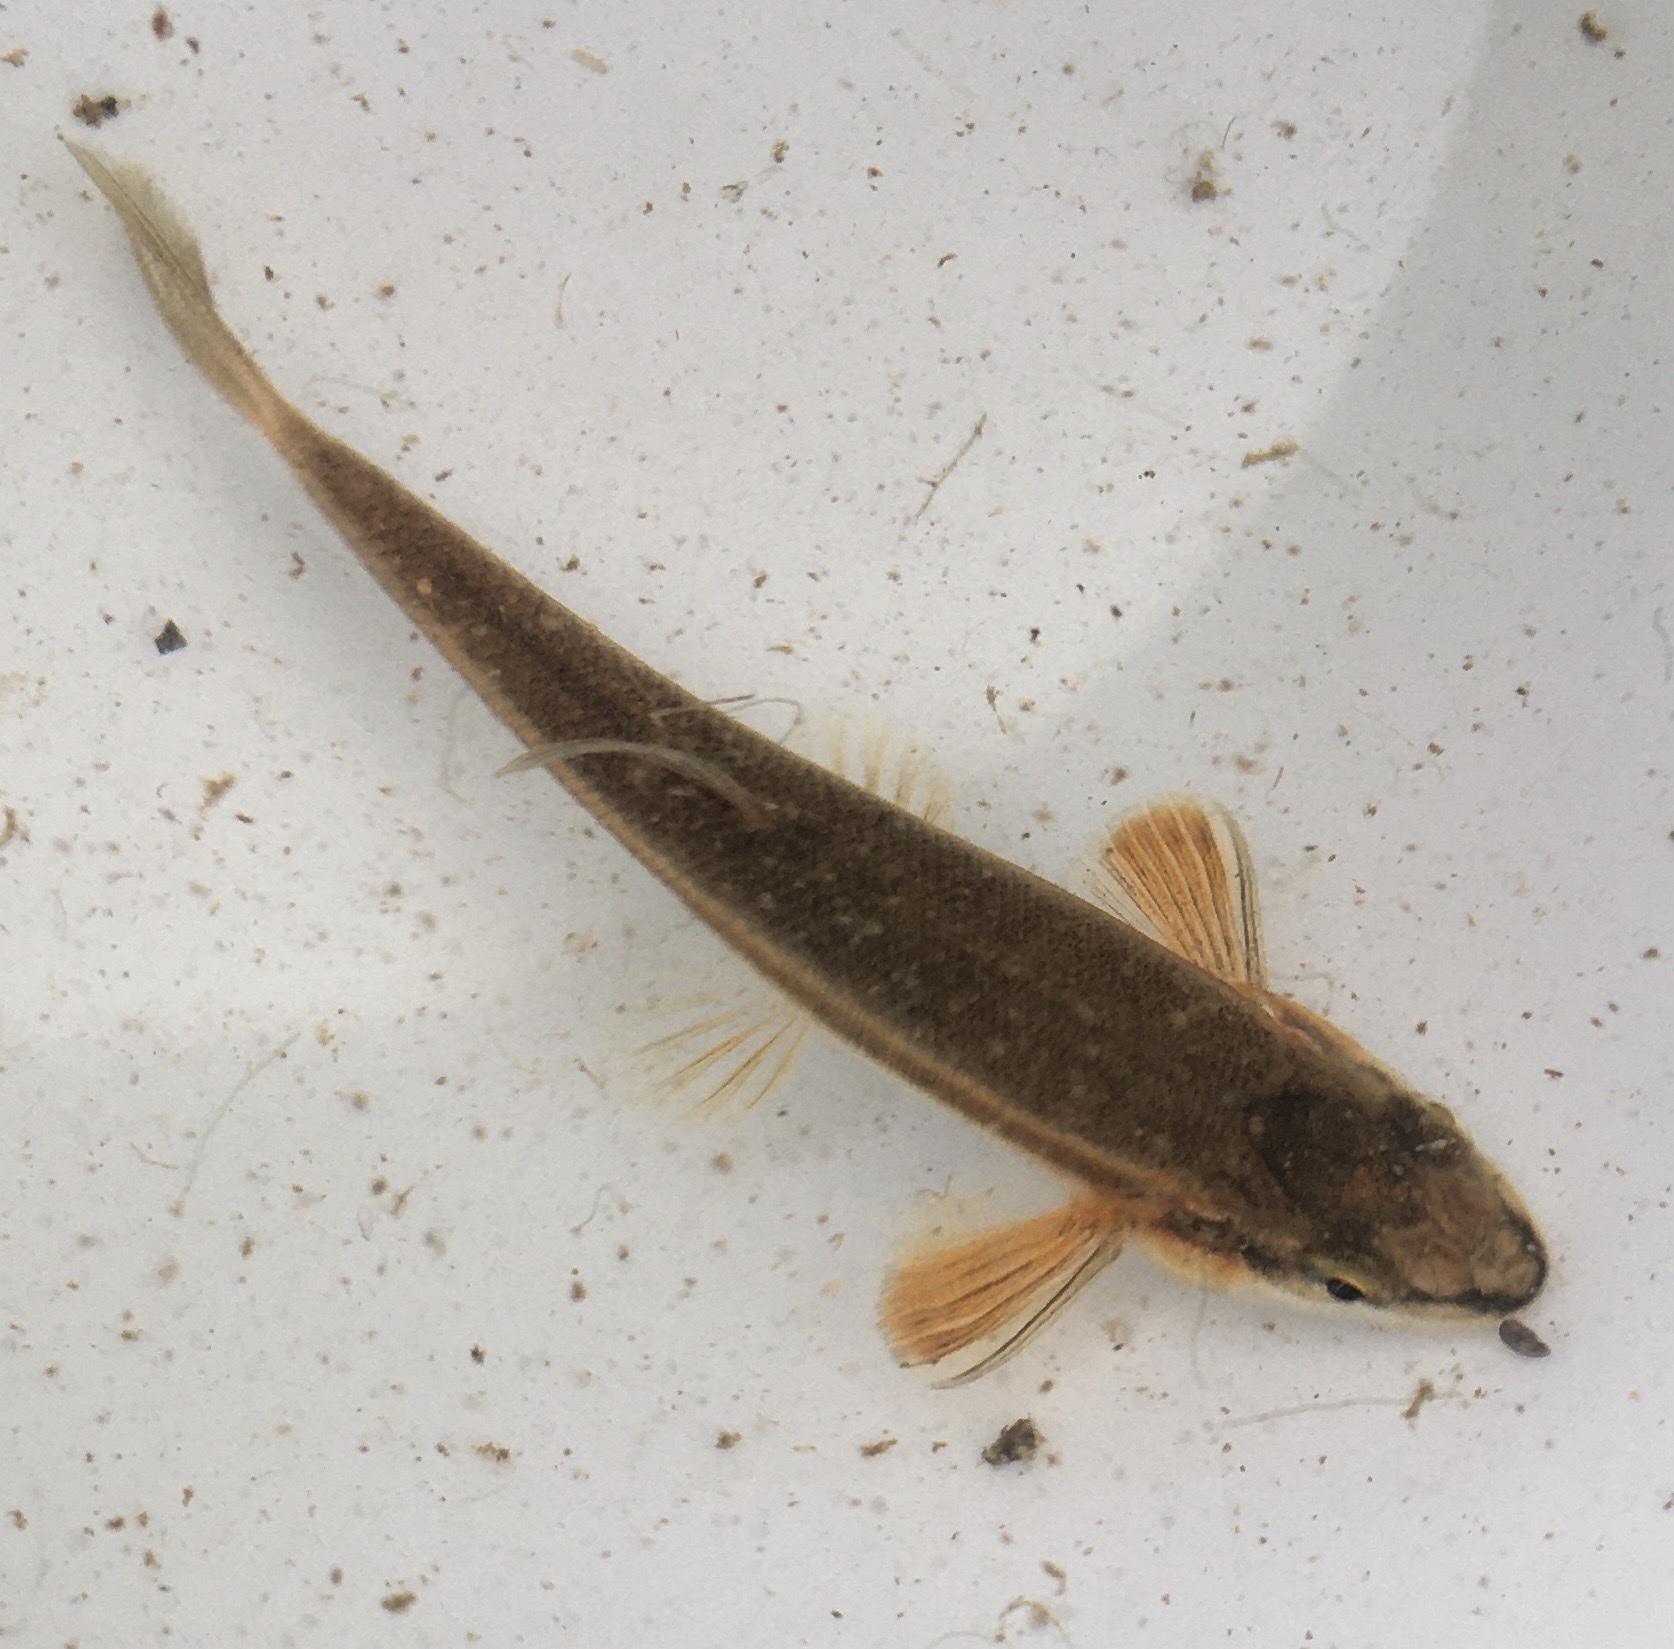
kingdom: Animalia
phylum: Chordata
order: Cypriniformes
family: Cyprinidae
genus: Rhinichthys
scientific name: Rhinichthys atratulus
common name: Eastern blacknose dace
